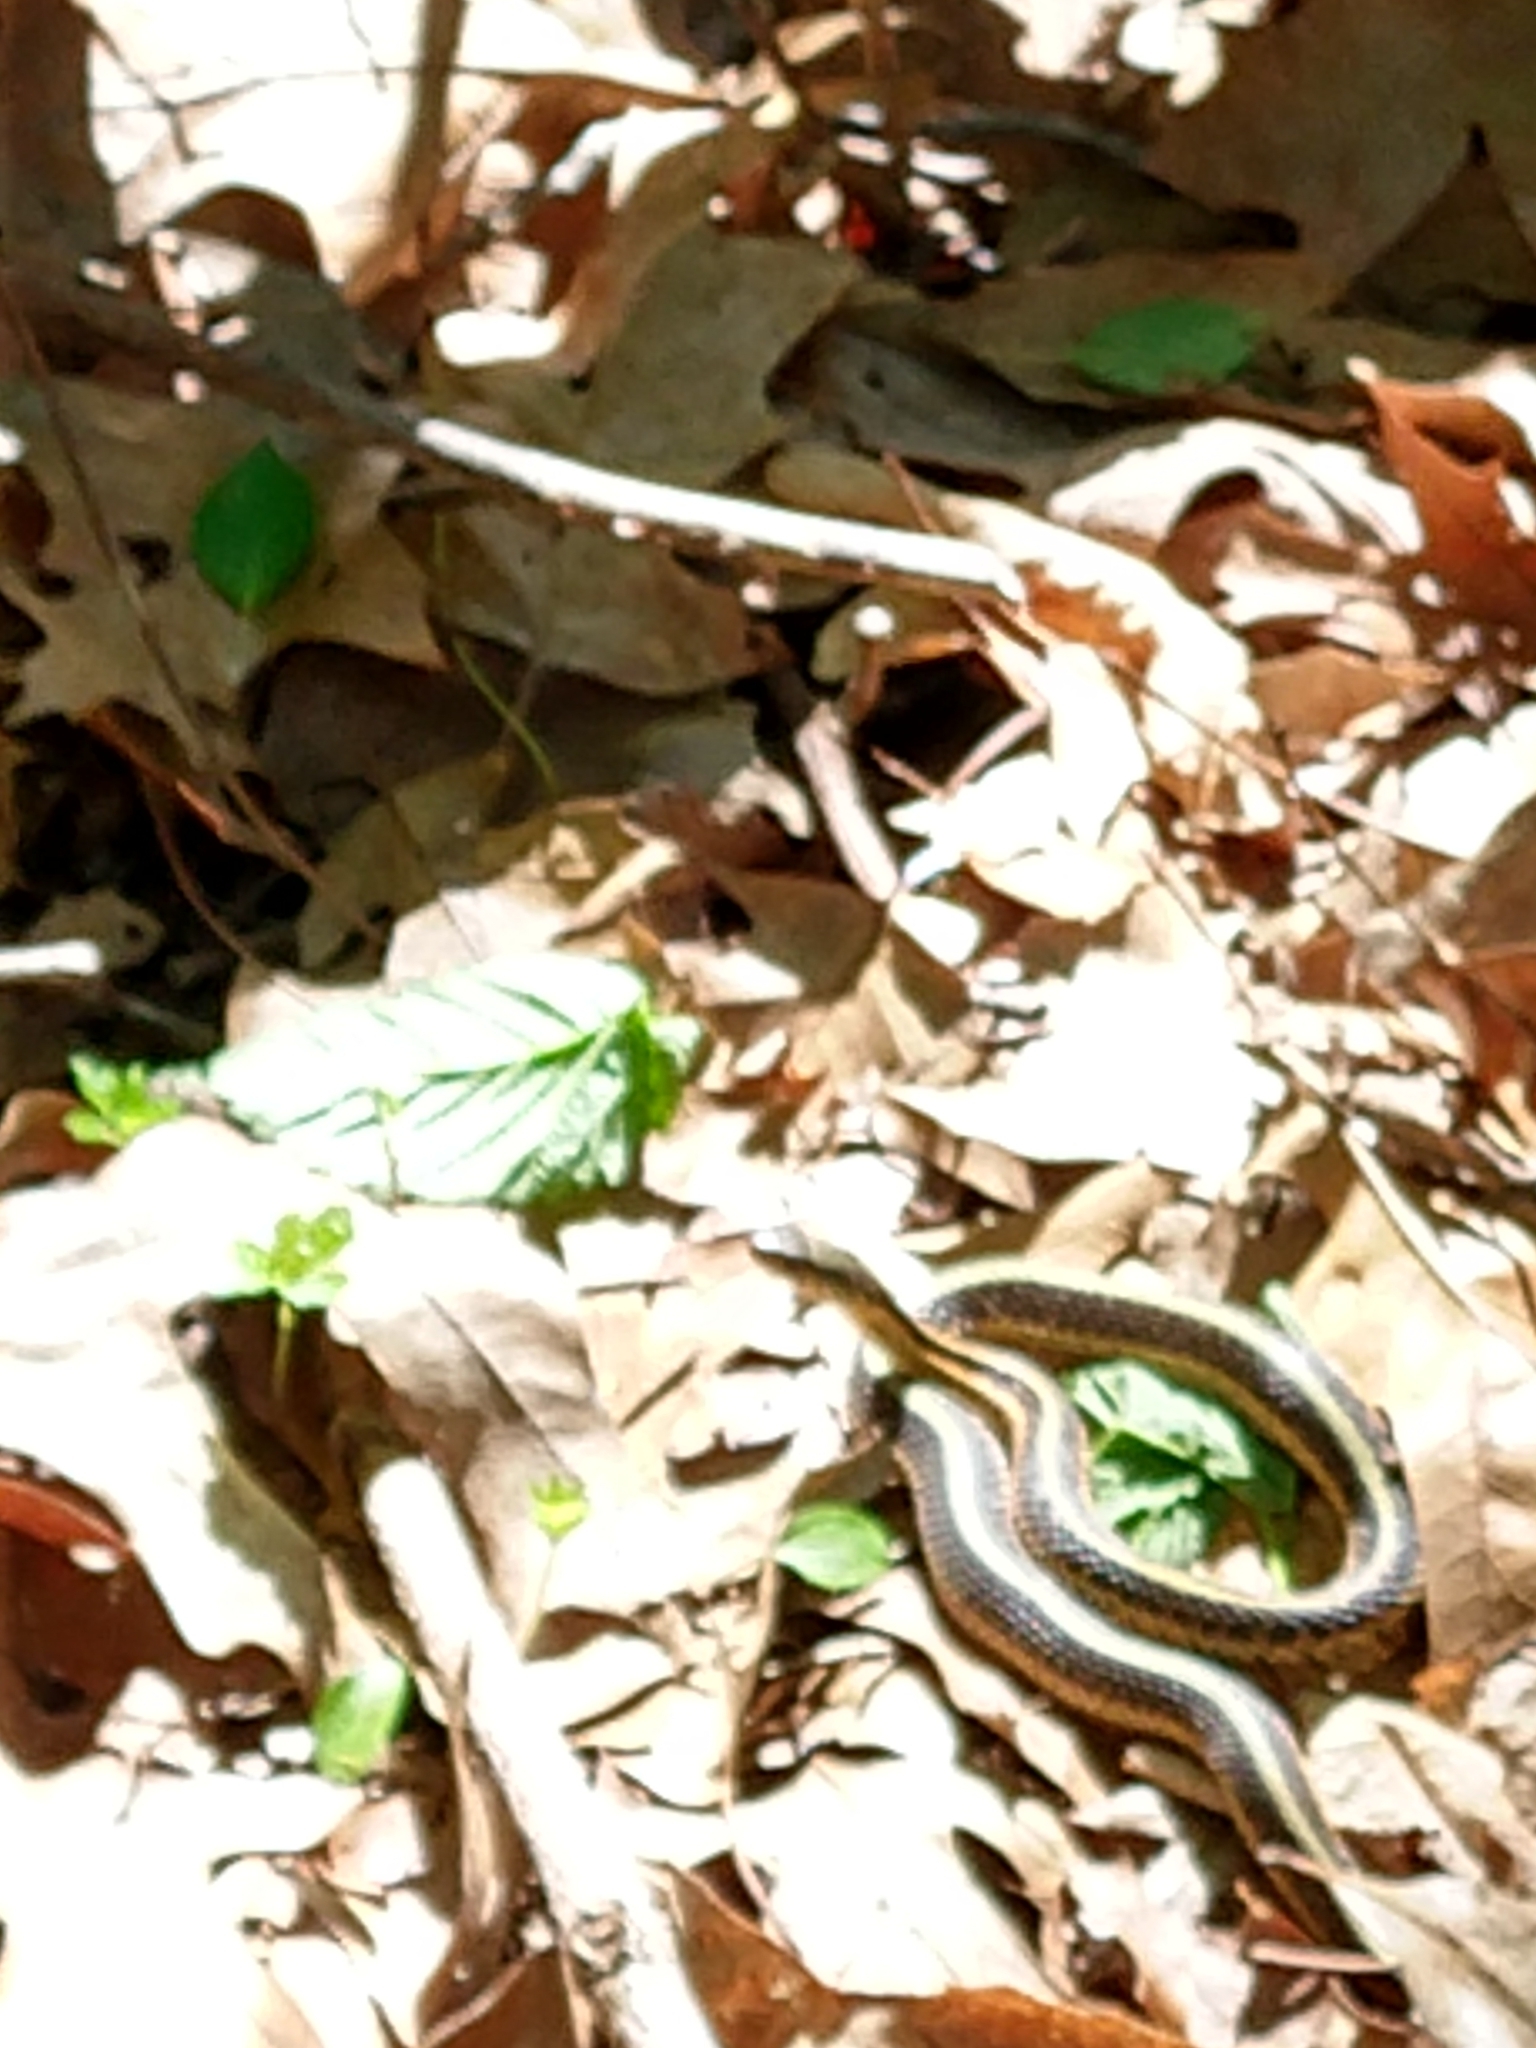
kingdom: Animalia
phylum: Chordata
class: Squamata
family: Colubridae
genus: Thamnophis
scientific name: Thamnophis
